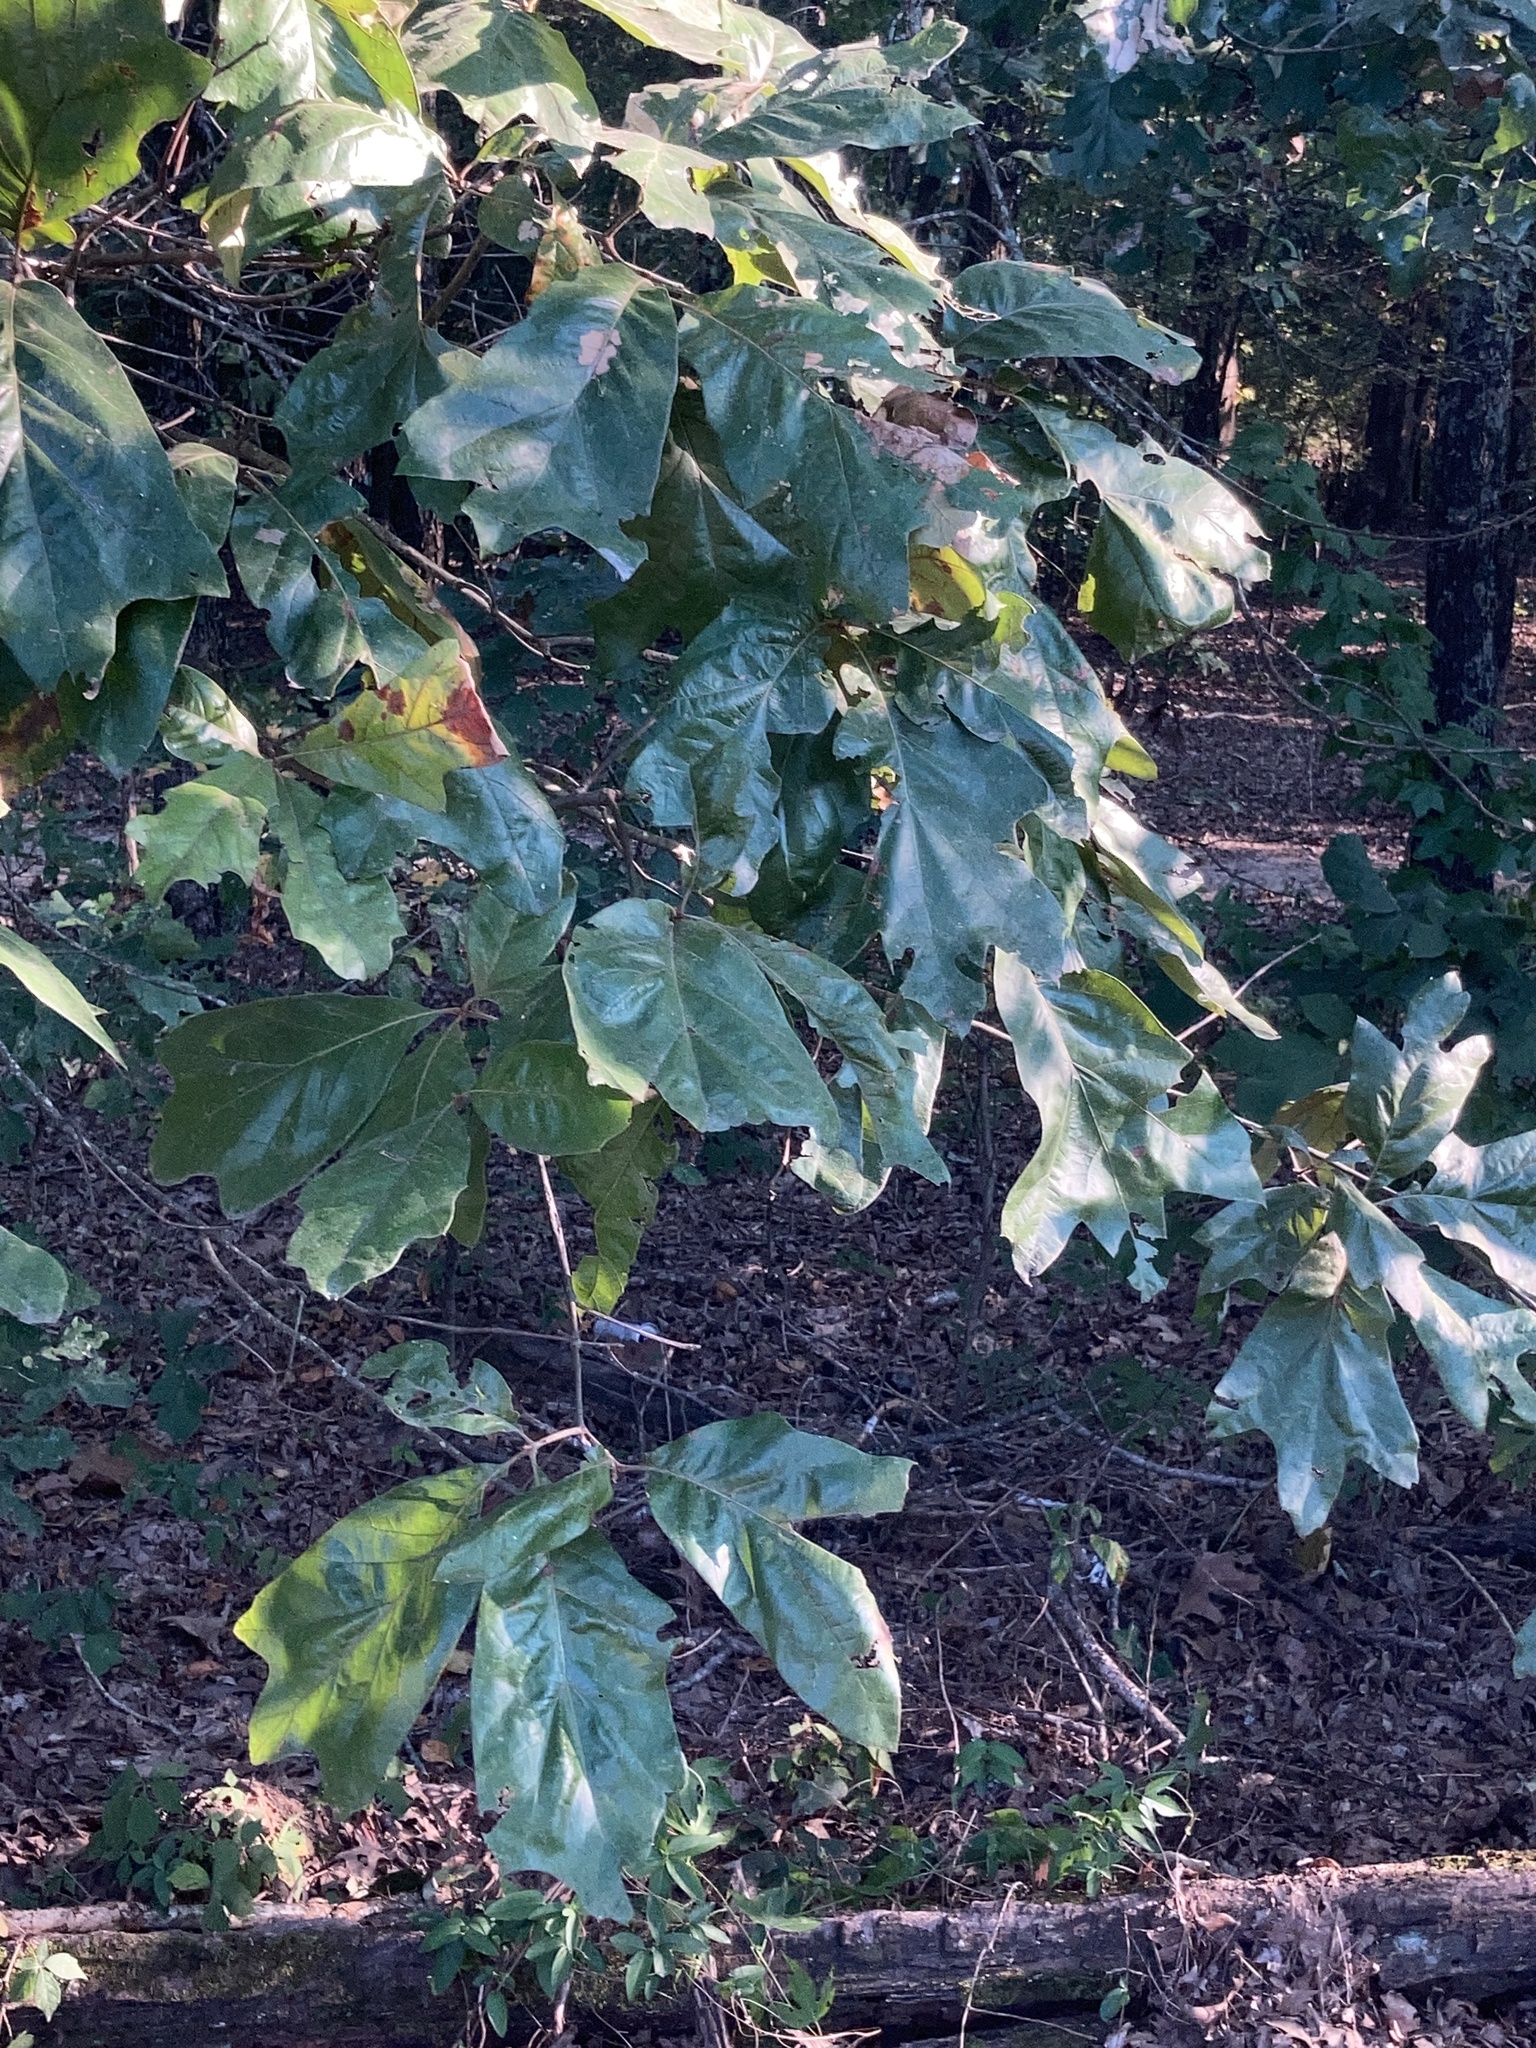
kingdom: Plantae
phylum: Tracheophyta
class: Magnoliopsida
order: Fagales
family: Fagaceae
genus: Quercus
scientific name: Quercus falcata
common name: Southern red oak
